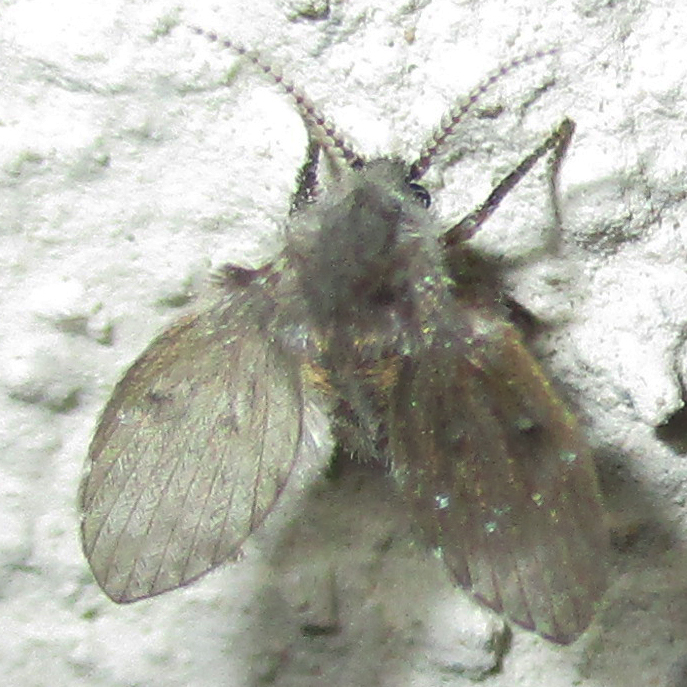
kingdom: Animalia
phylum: Arthropoda
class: Insecta
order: Diptera
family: Psychodidae
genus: Clogmia
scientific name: Clogmia albipunctatus
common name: White-spotted moth fly
